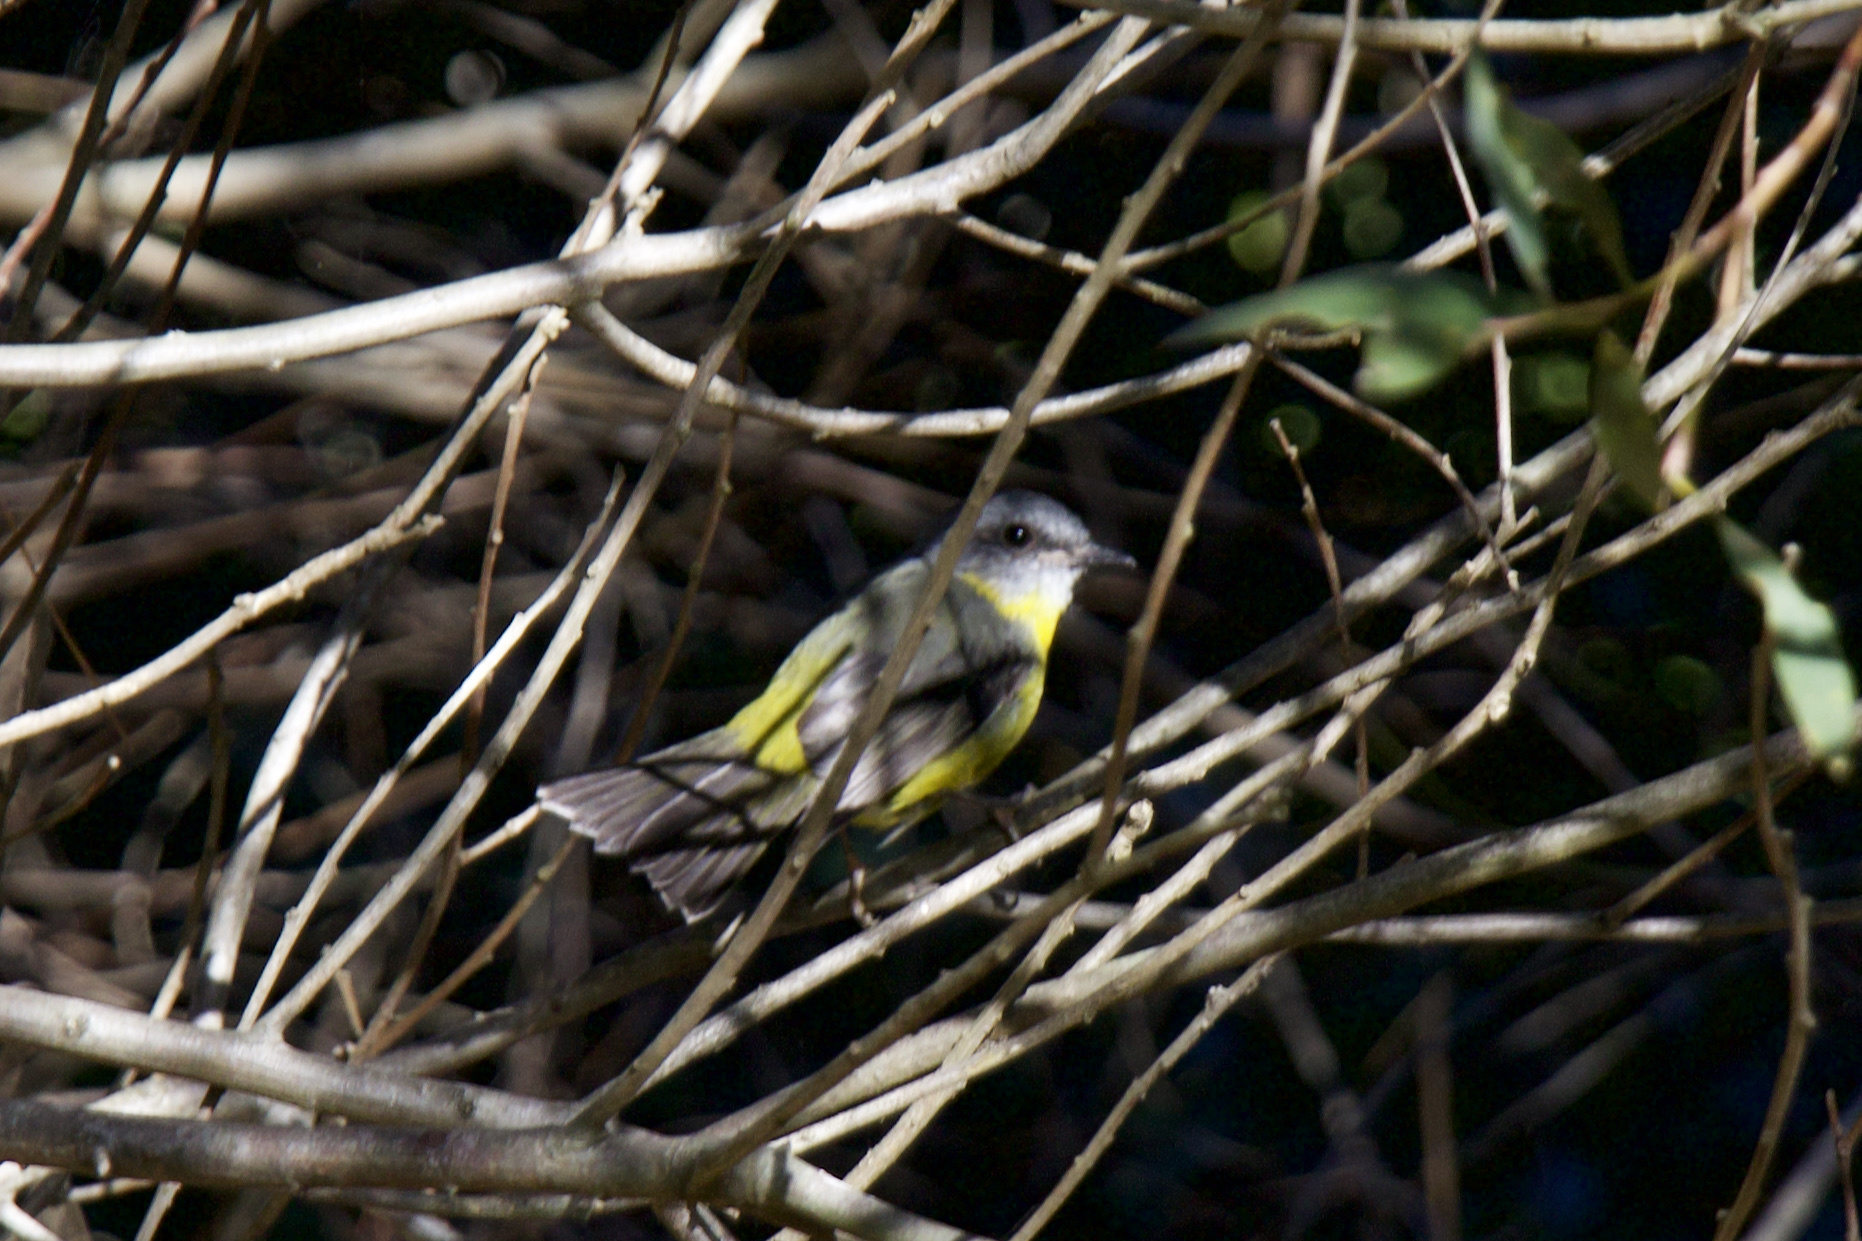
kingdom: Animalia
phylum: Chordata
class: Aves
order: Passeriformes
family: Petroicidae
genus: Eopsaltria
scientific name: Eopsaltria australis
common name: Eastern yellow robin
